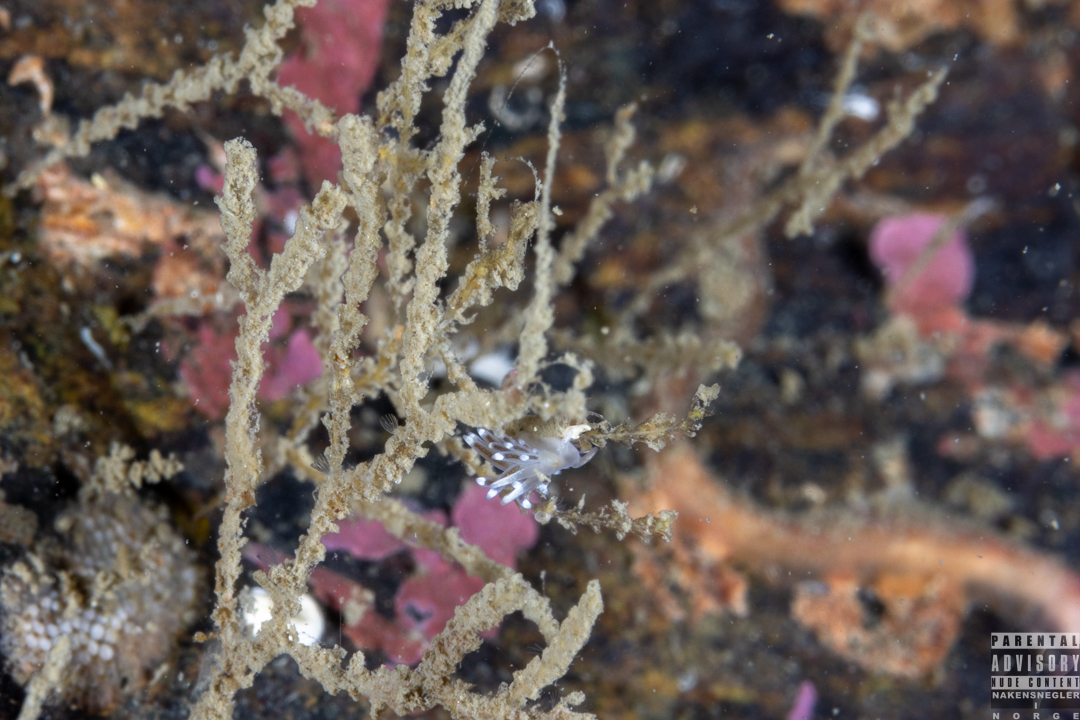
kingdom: Animalia
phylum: Mollusca
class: Gastropoda
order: Nudibranchia
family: Cuthonellidae
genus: Cuthonella
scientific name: Cuthonella concinna
